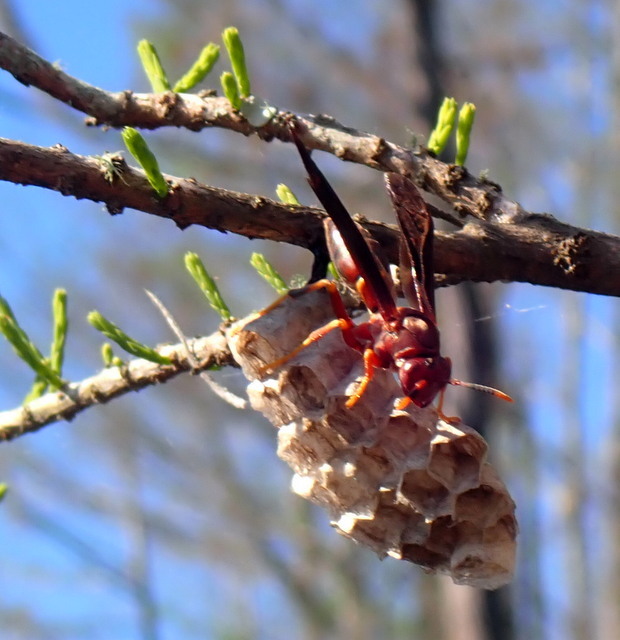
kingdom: Animalia
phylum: Arthropoda
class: Insecta
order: Hymenoptera
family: Eumenidae
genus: Polistes
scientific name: Polistes annularis
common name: Ringed paper wasp
